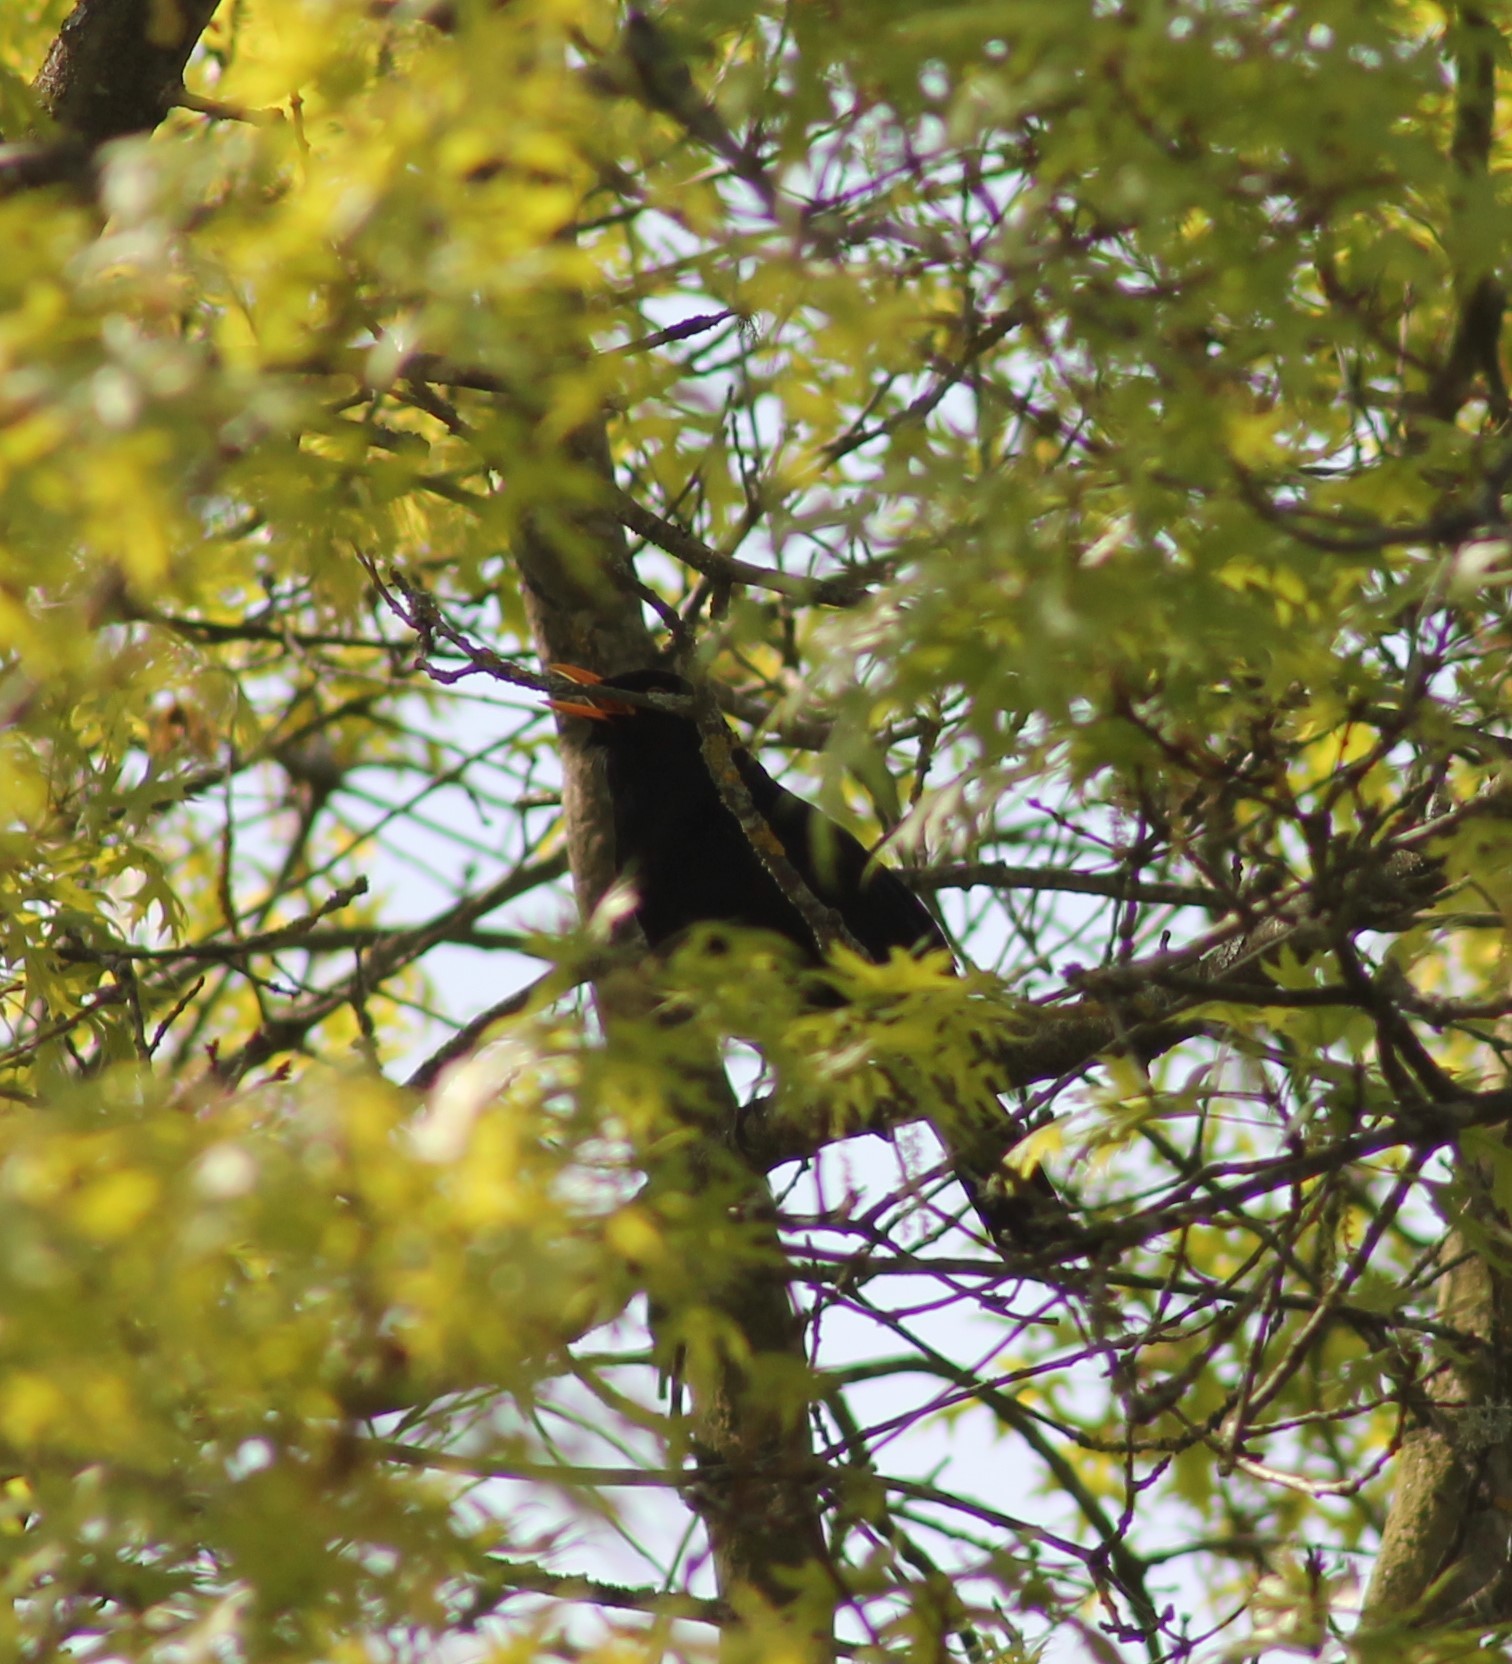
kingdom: Animalia
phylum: Chordata
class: Aves
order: Passeriformes
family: Turdidae
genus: Turdus
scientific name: Turdus merula
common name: Common blackbird
